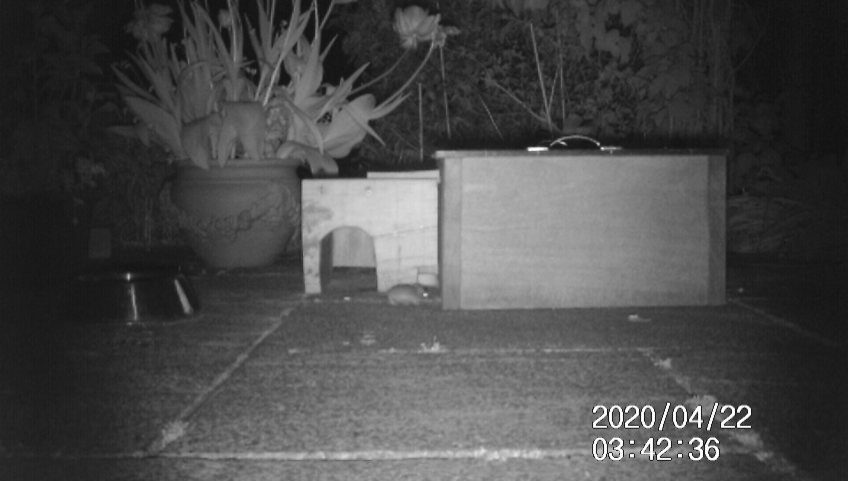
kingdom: Animalia
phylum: Chordata
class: Mammalia
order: Rodentia
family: Muridae
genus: Mus
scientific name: Mus musculus
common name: House mouse
